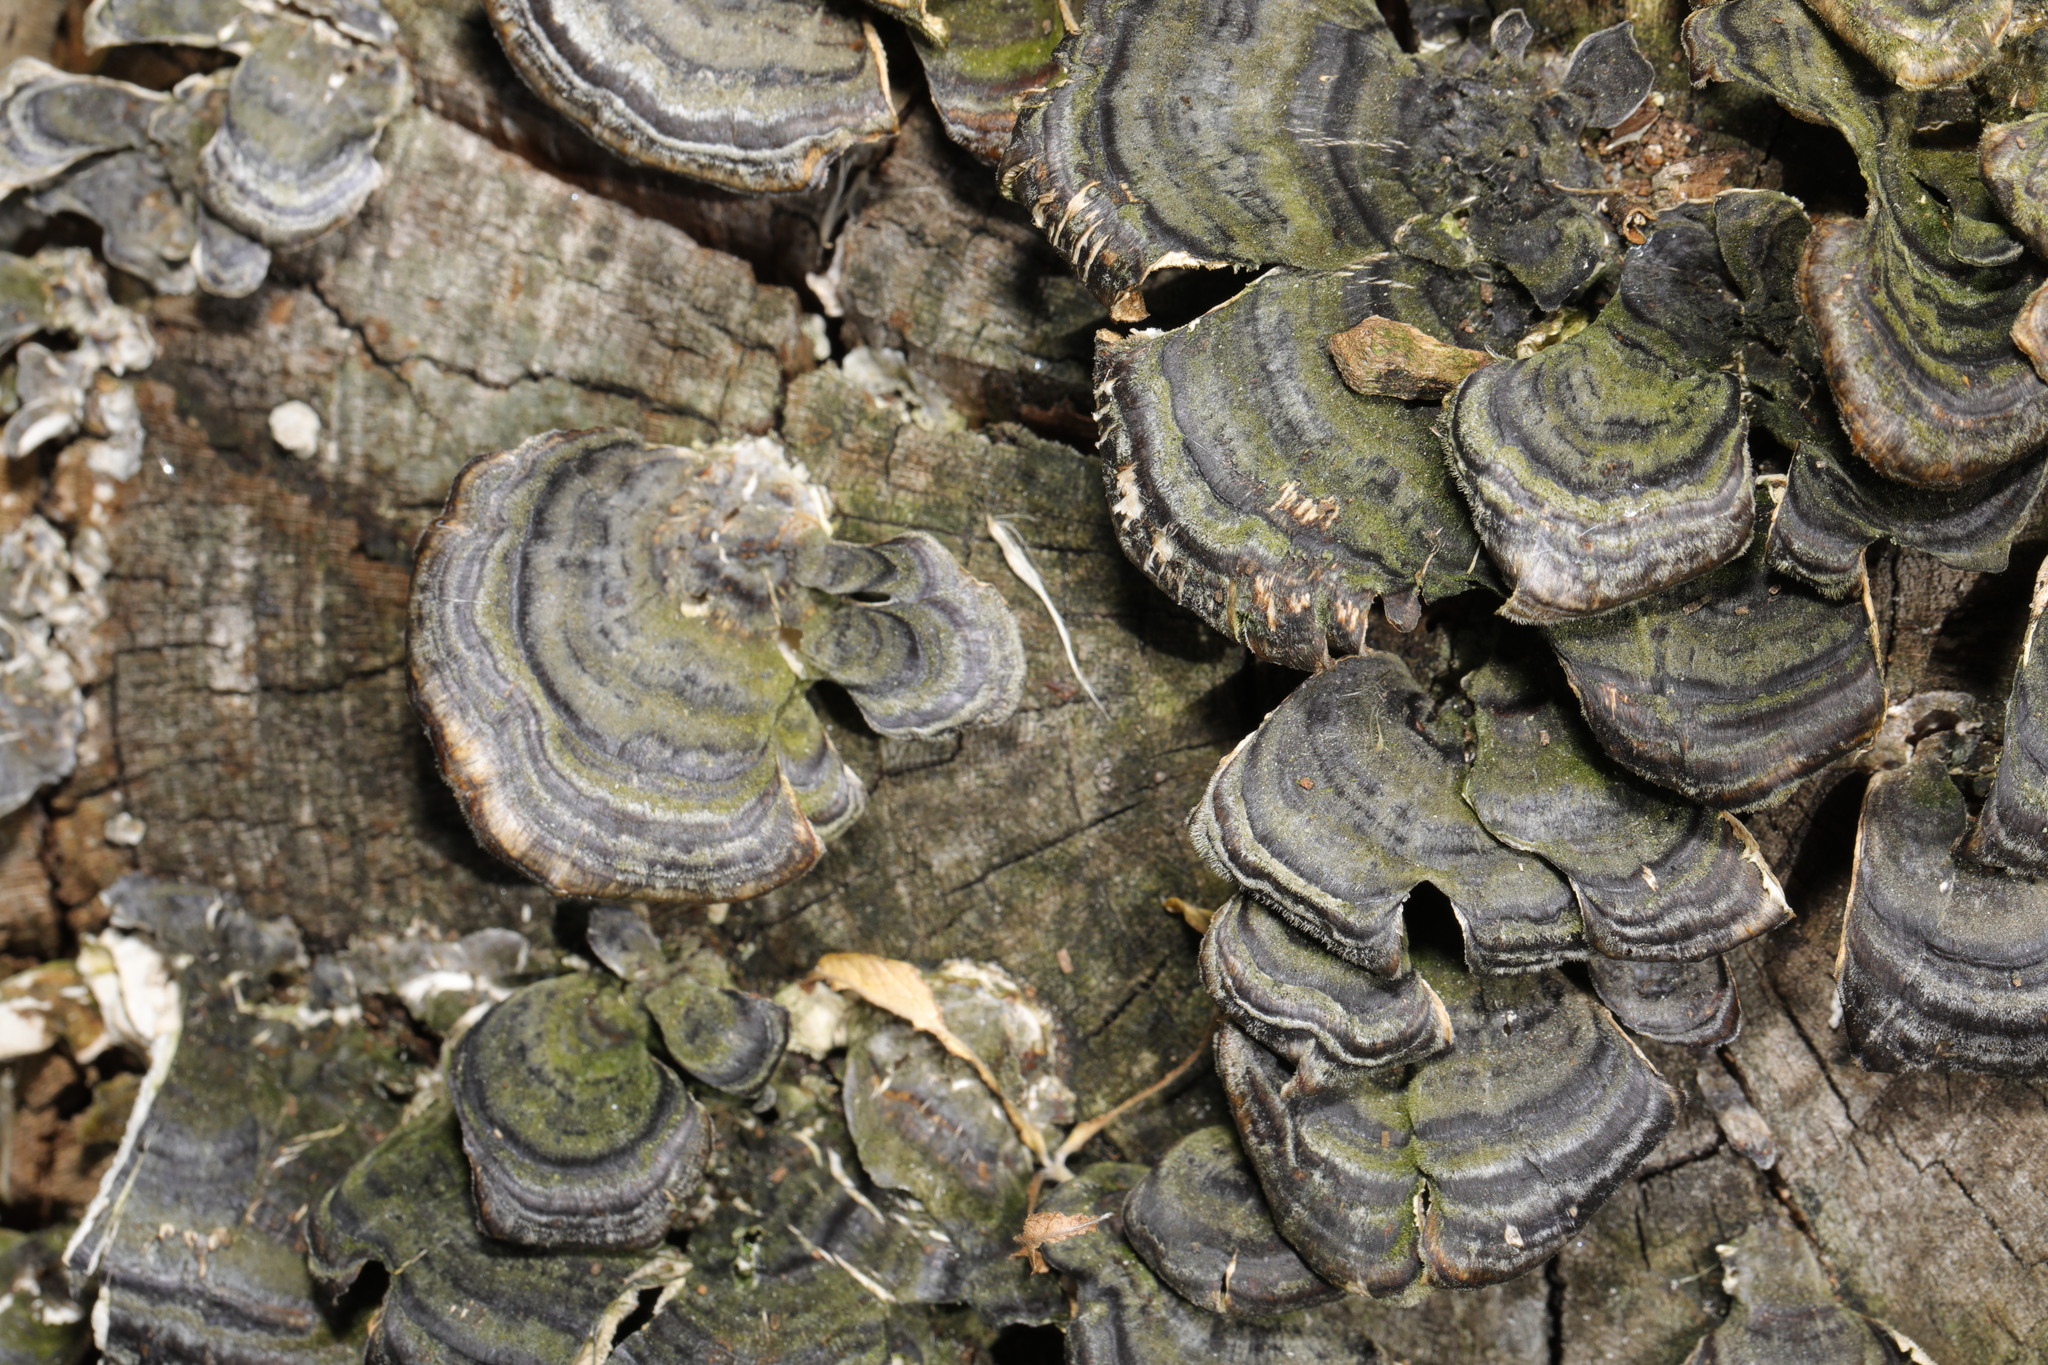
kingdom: Fungi
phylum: Basidiomycota
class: Agaricomycetes
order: Polyporales
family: Polyporaceae
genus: Trametes
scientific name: Trametes versicolor
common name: Turkeytail
